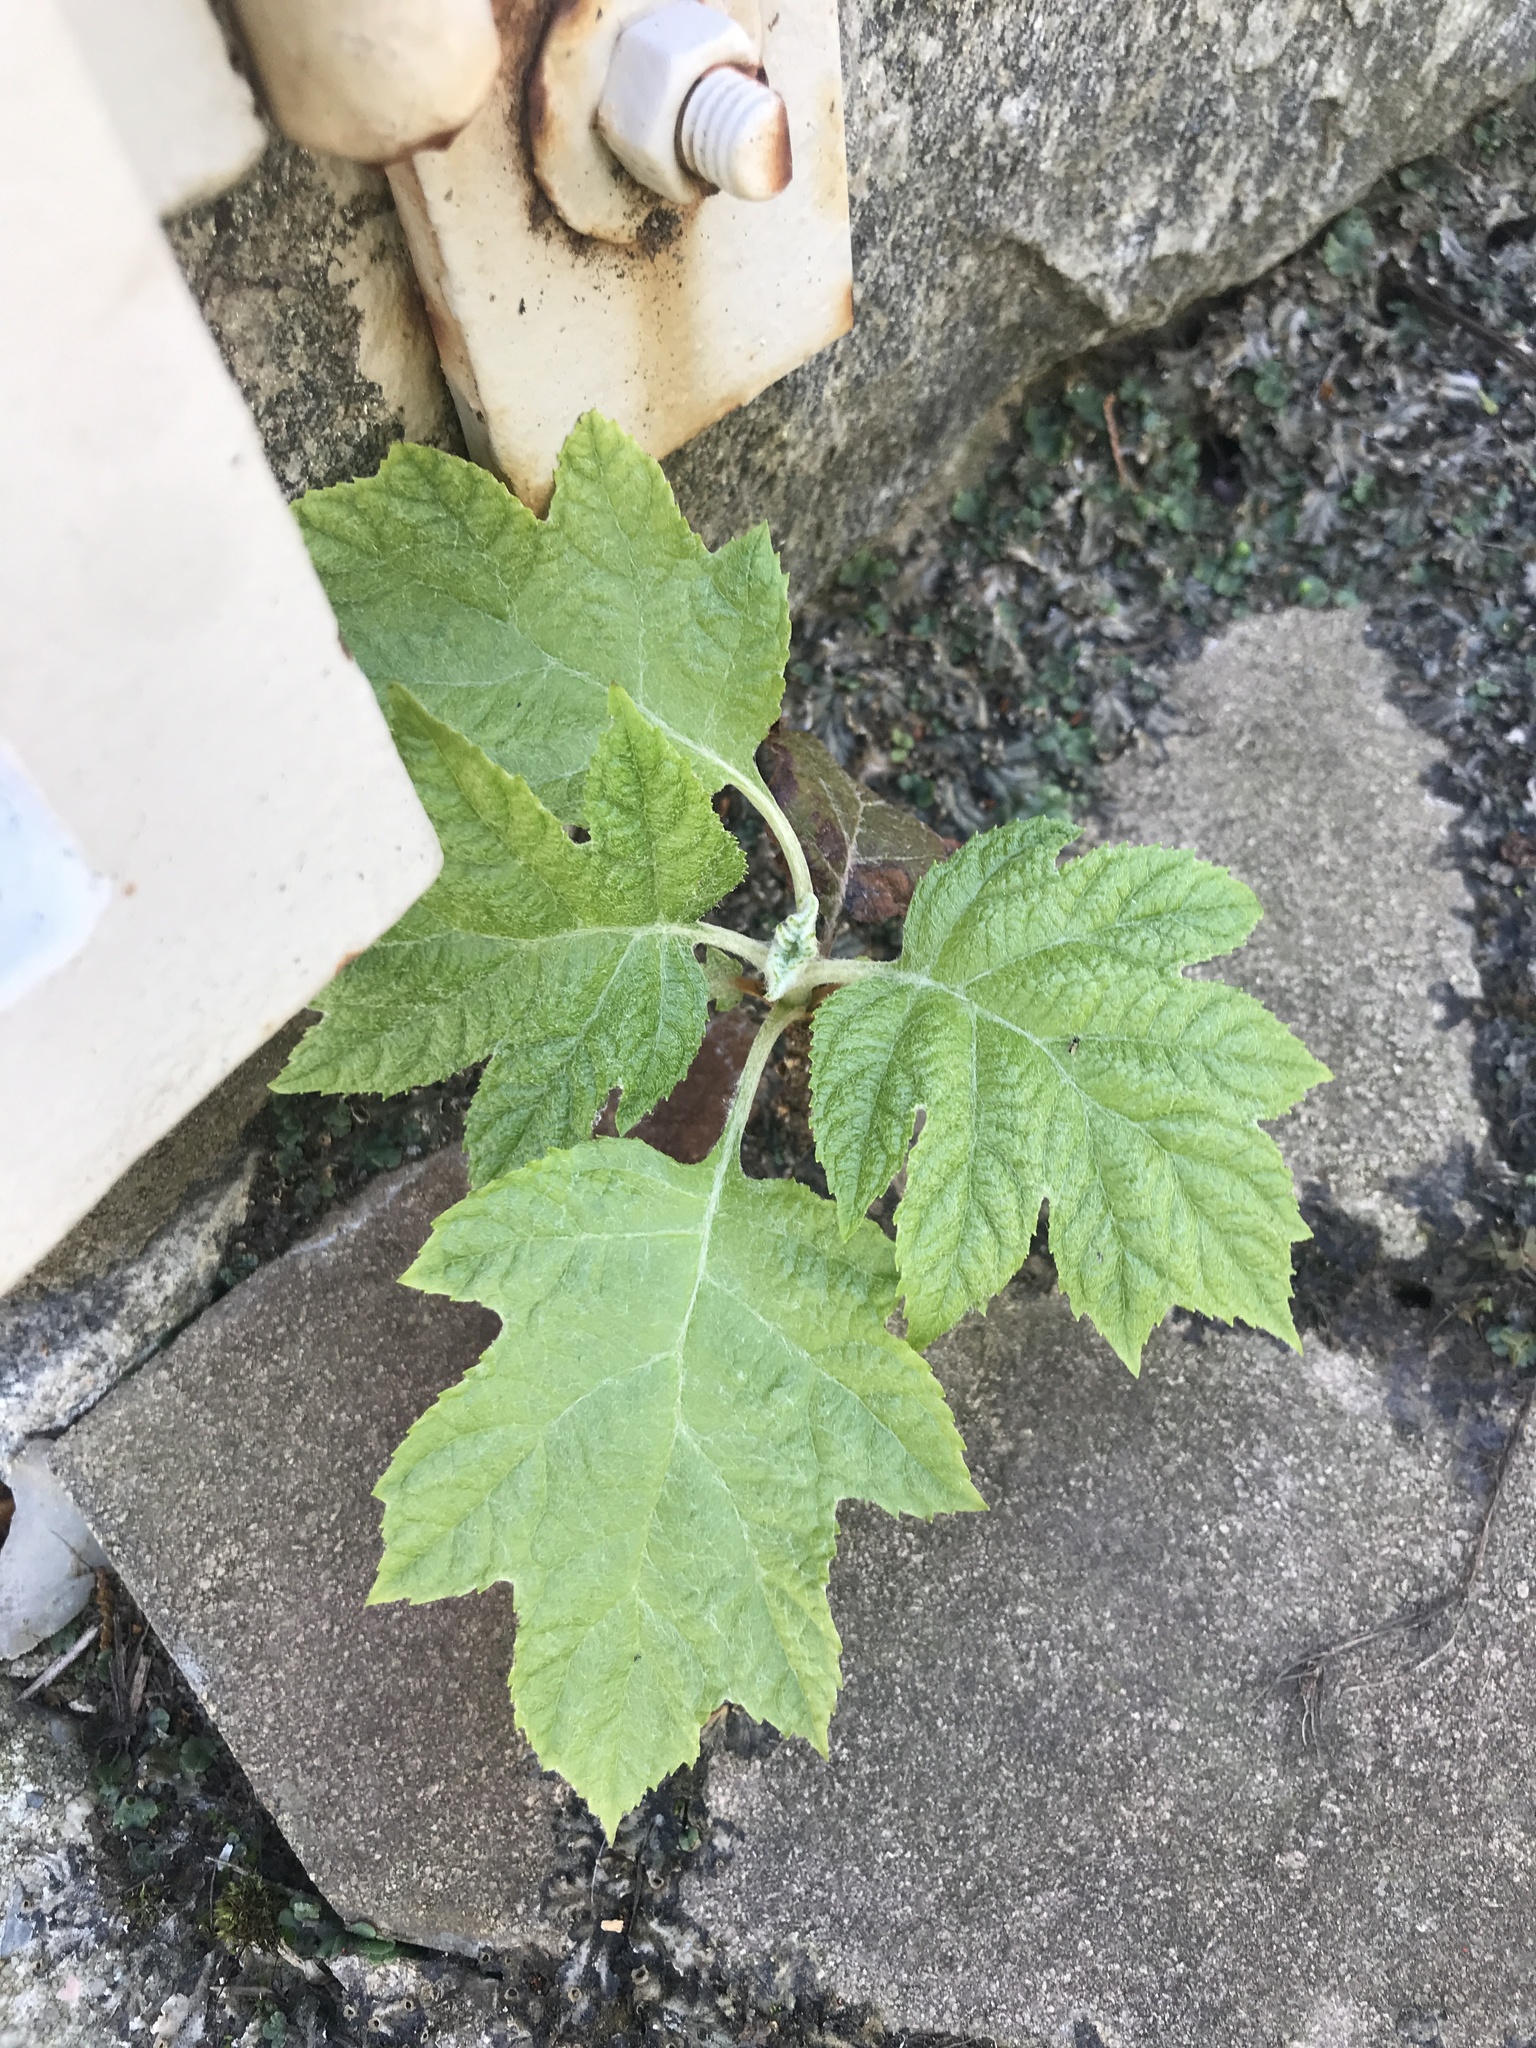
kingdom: Plantae
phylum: Tracheophyta
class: Magnoliopsida
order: Cornales
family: Hydrangeaceae
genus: Hydrangea
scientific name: Hydrangea quercifolia
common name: Oak-leaf hydrangea
